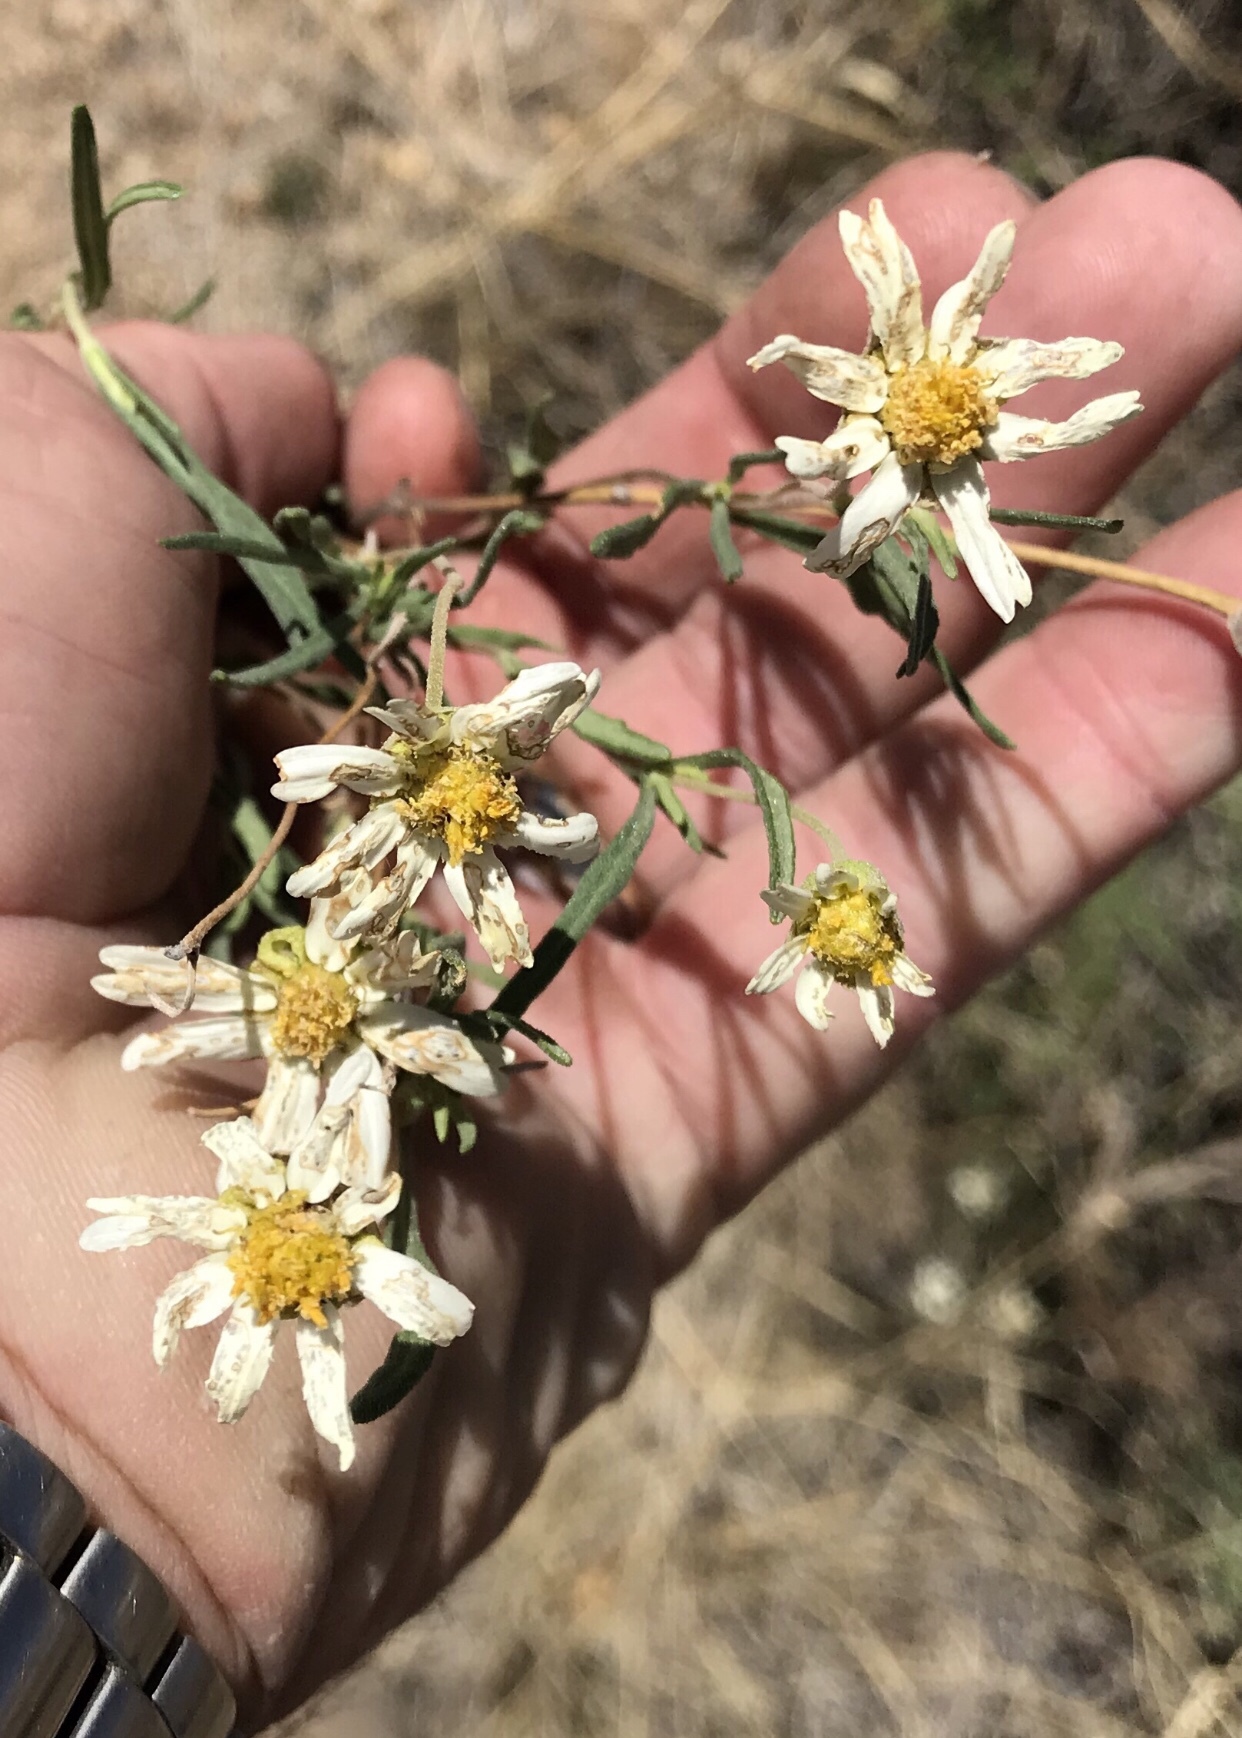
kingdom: Plantae
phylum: Tracheophyta
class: Magnoliopsida
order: Asterales
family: Asteraceae
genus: Melampodium
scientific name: Melampodium leucanthum
